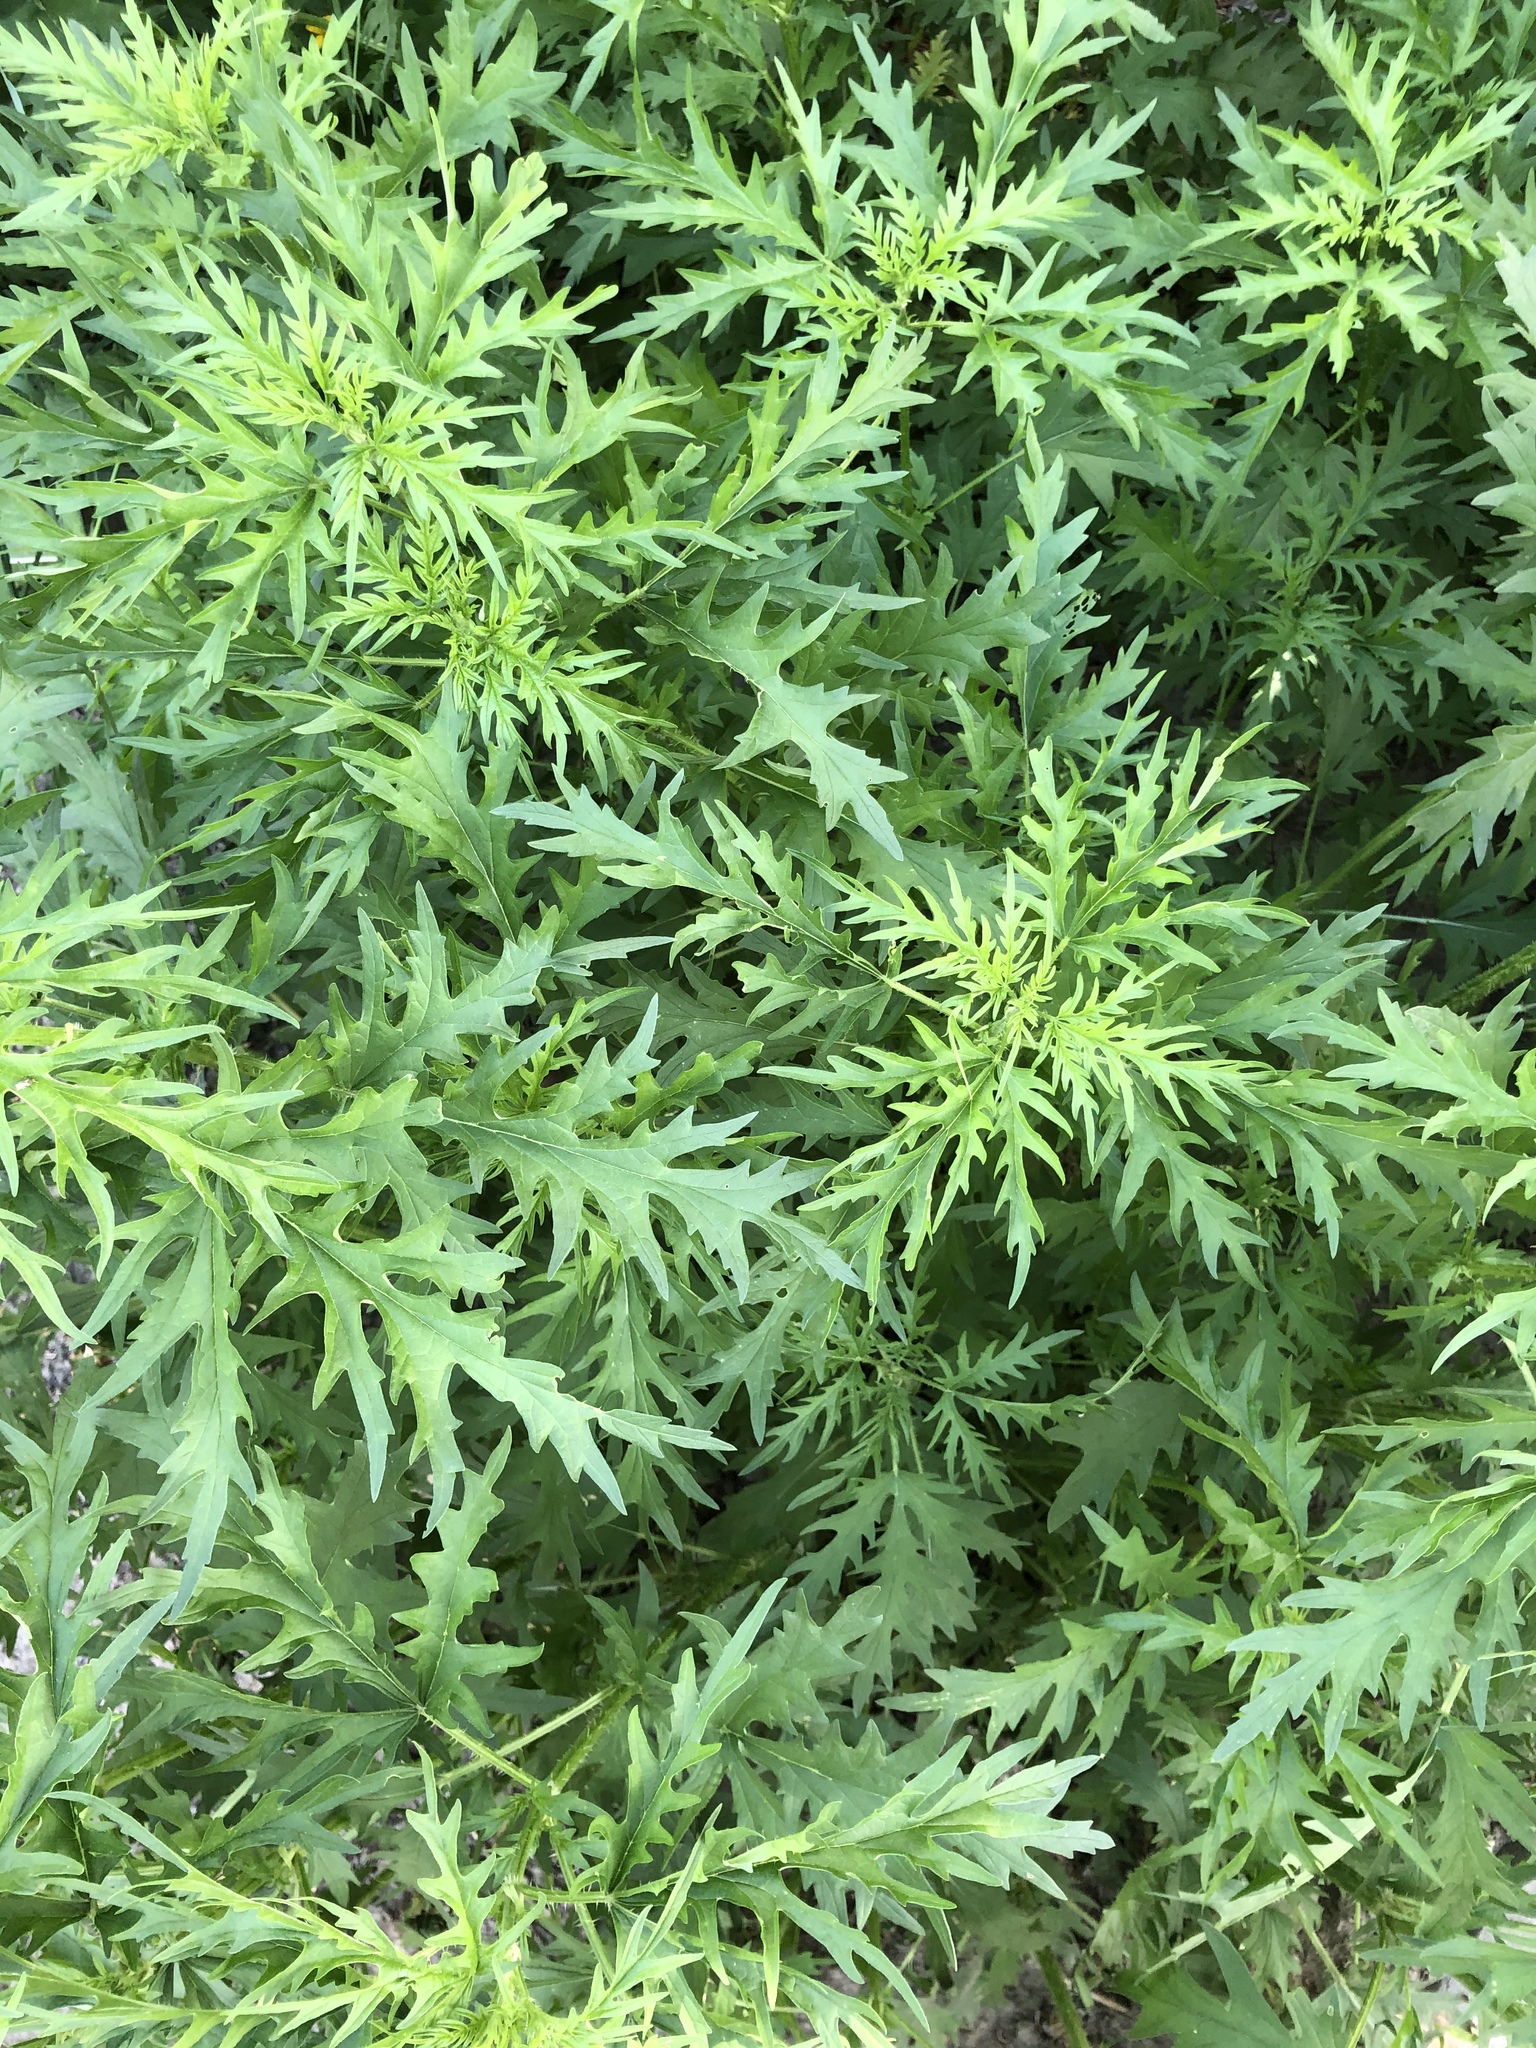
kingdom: Plantae
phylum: Tracheophyta
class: Magnoliopsida
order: Rosales
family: Urticaceae
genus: Urtica
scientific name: Urtica cannabina
